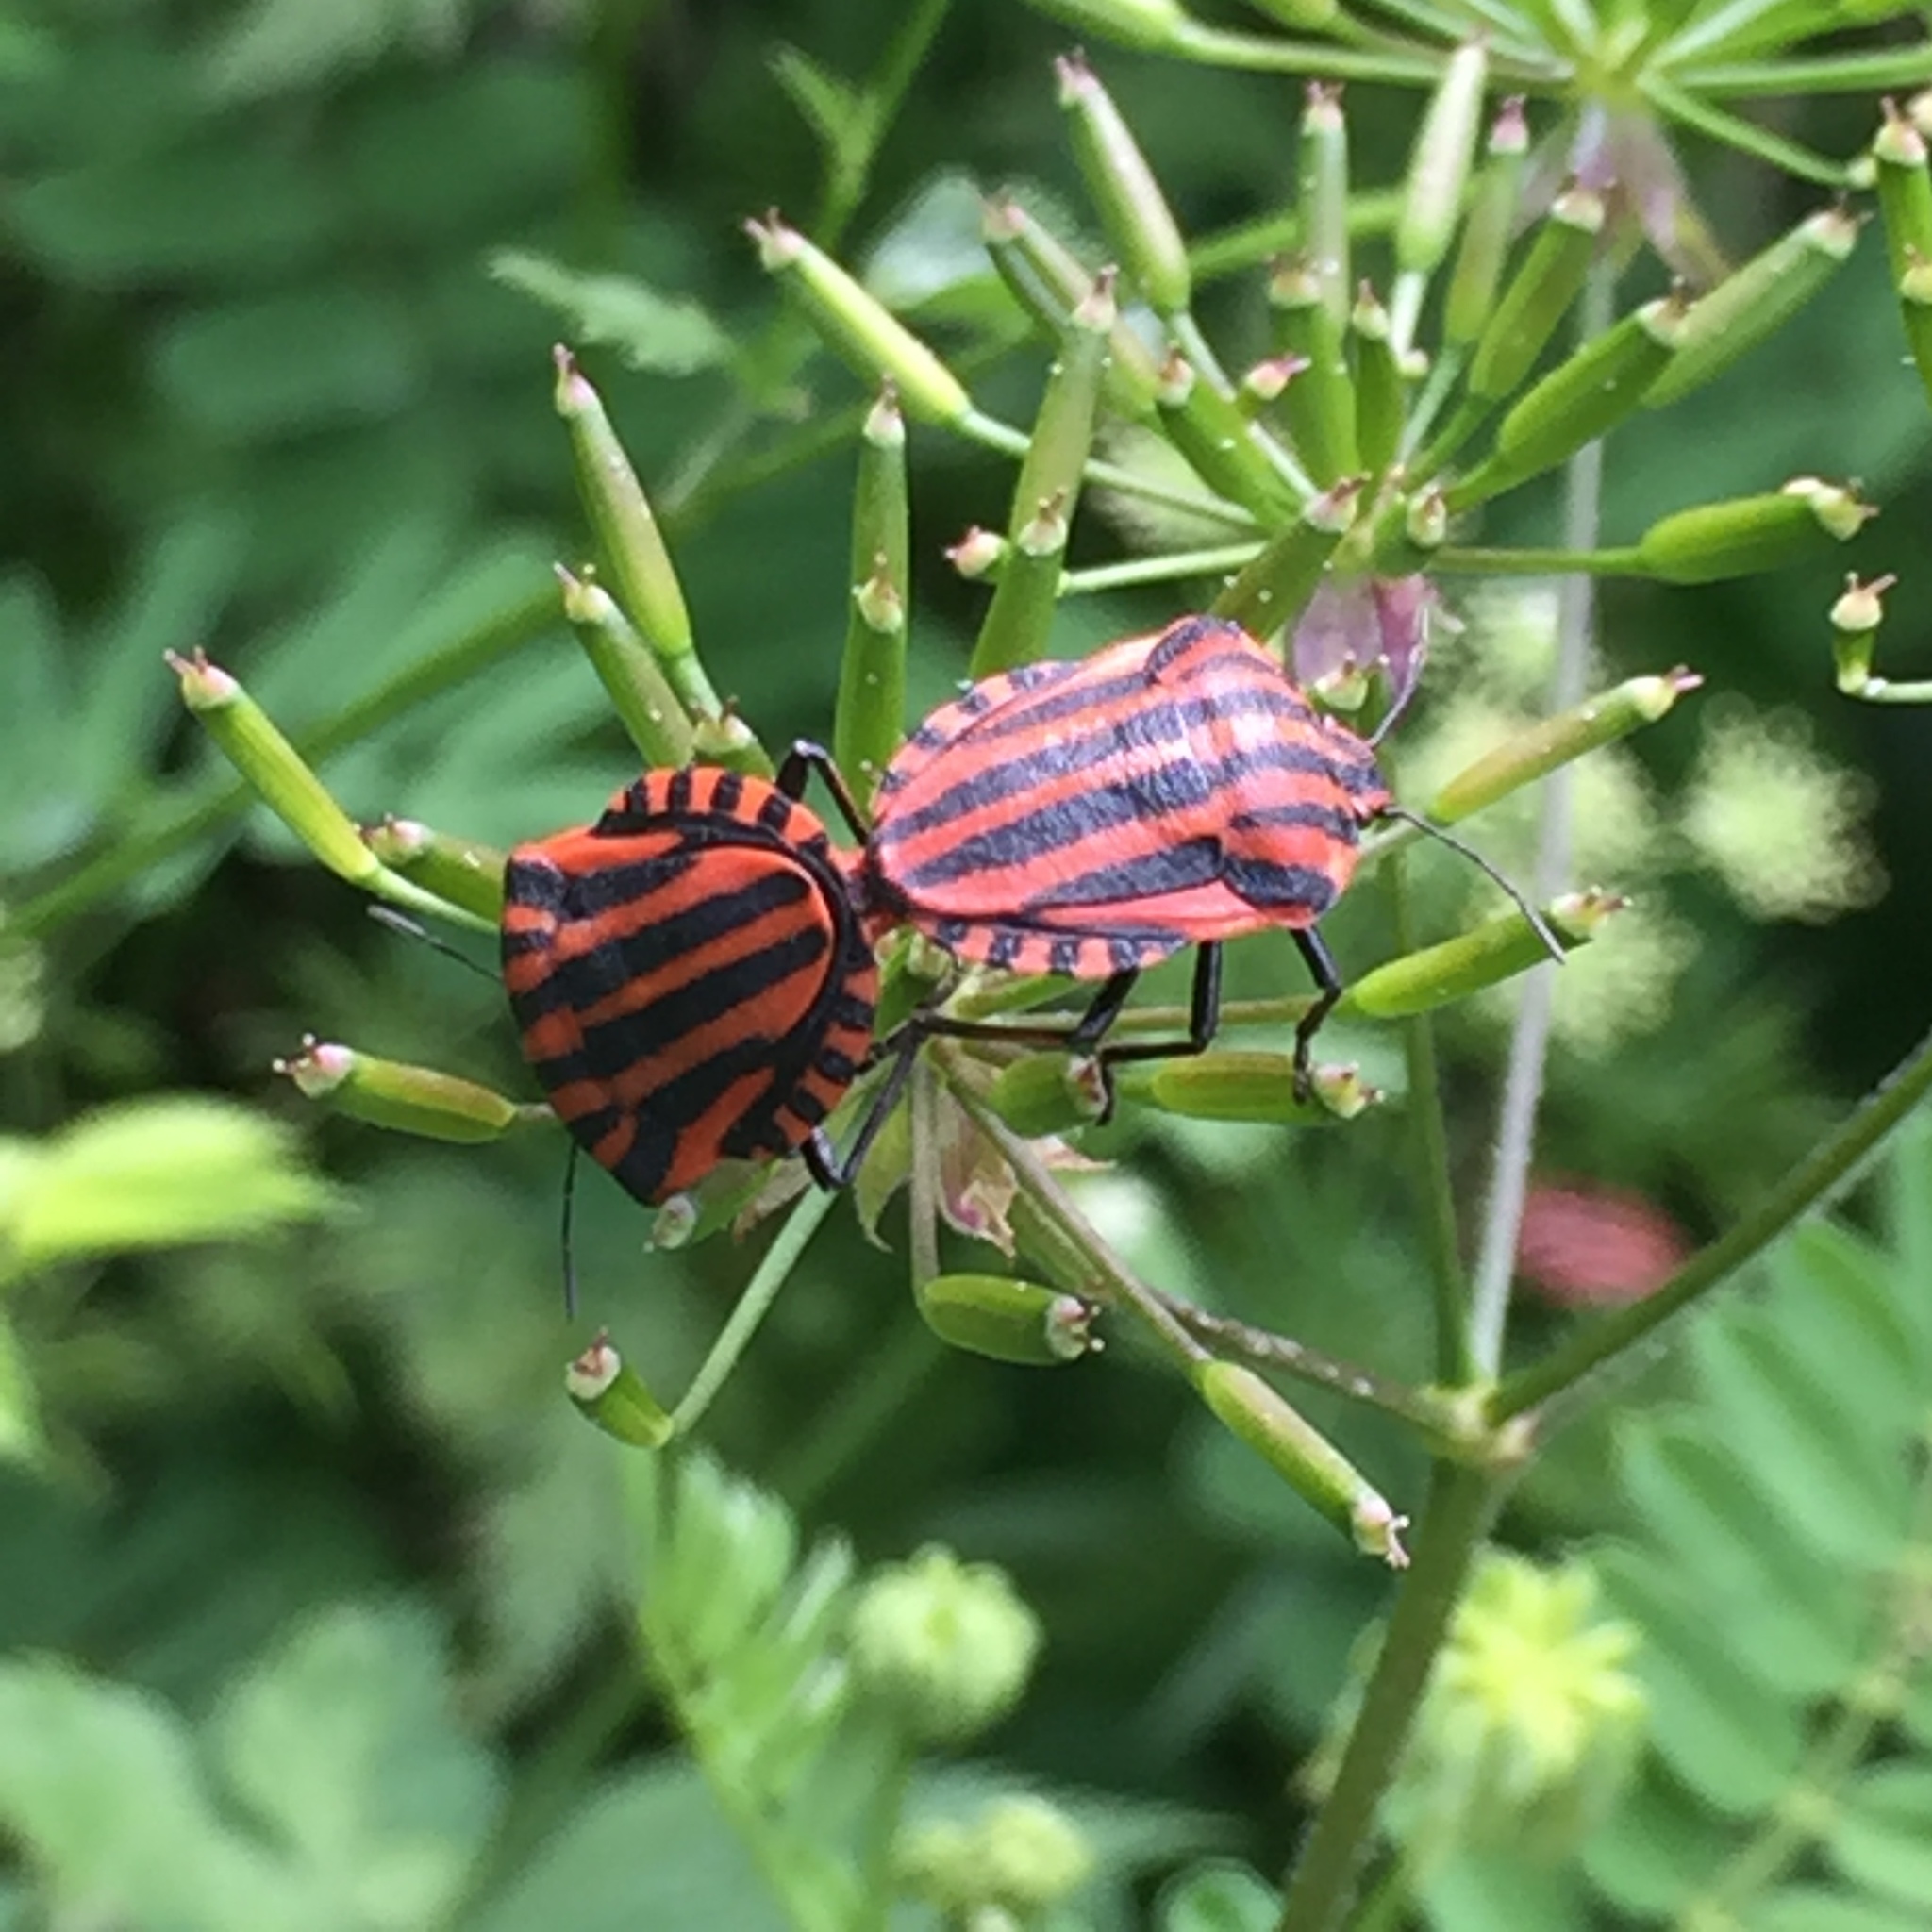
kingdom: Animalia
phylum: Arthropoda
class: Insecta
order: Hemiptera
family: Pentatomidae
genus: Graphosoma
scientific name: Graphosoma italicum
